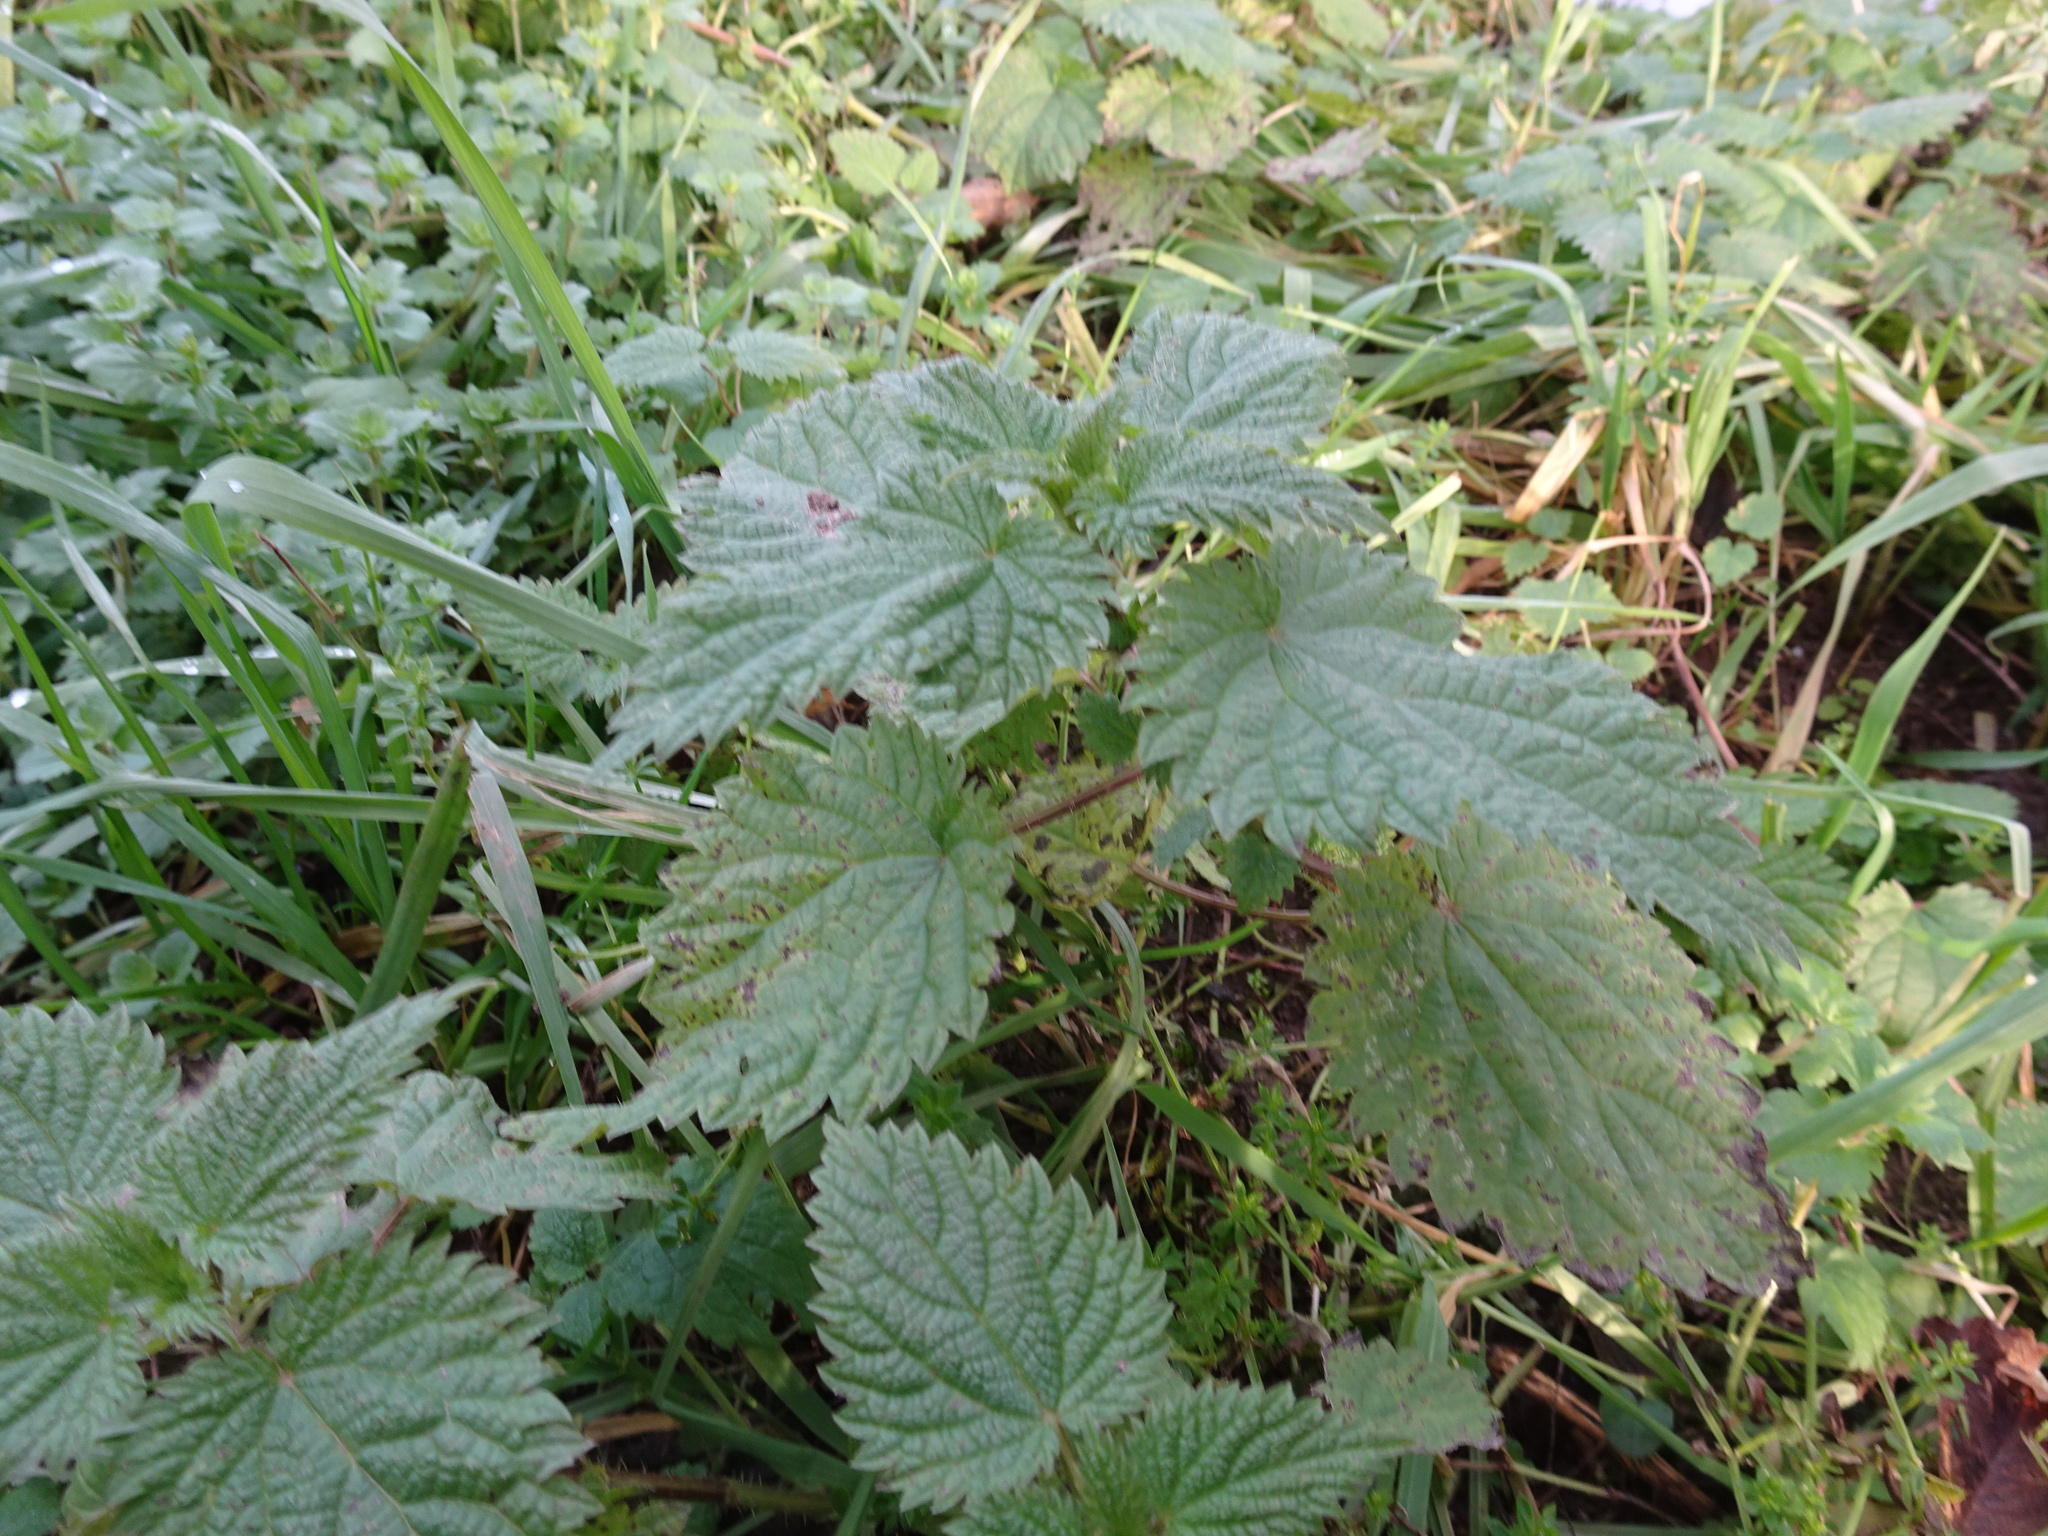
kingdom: Plantae
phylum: Tracheophyta
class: Magnoliopsida
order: Rosales
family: Urticaceae
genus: Urtica
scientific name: Urtica dioica
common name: Common nettle
